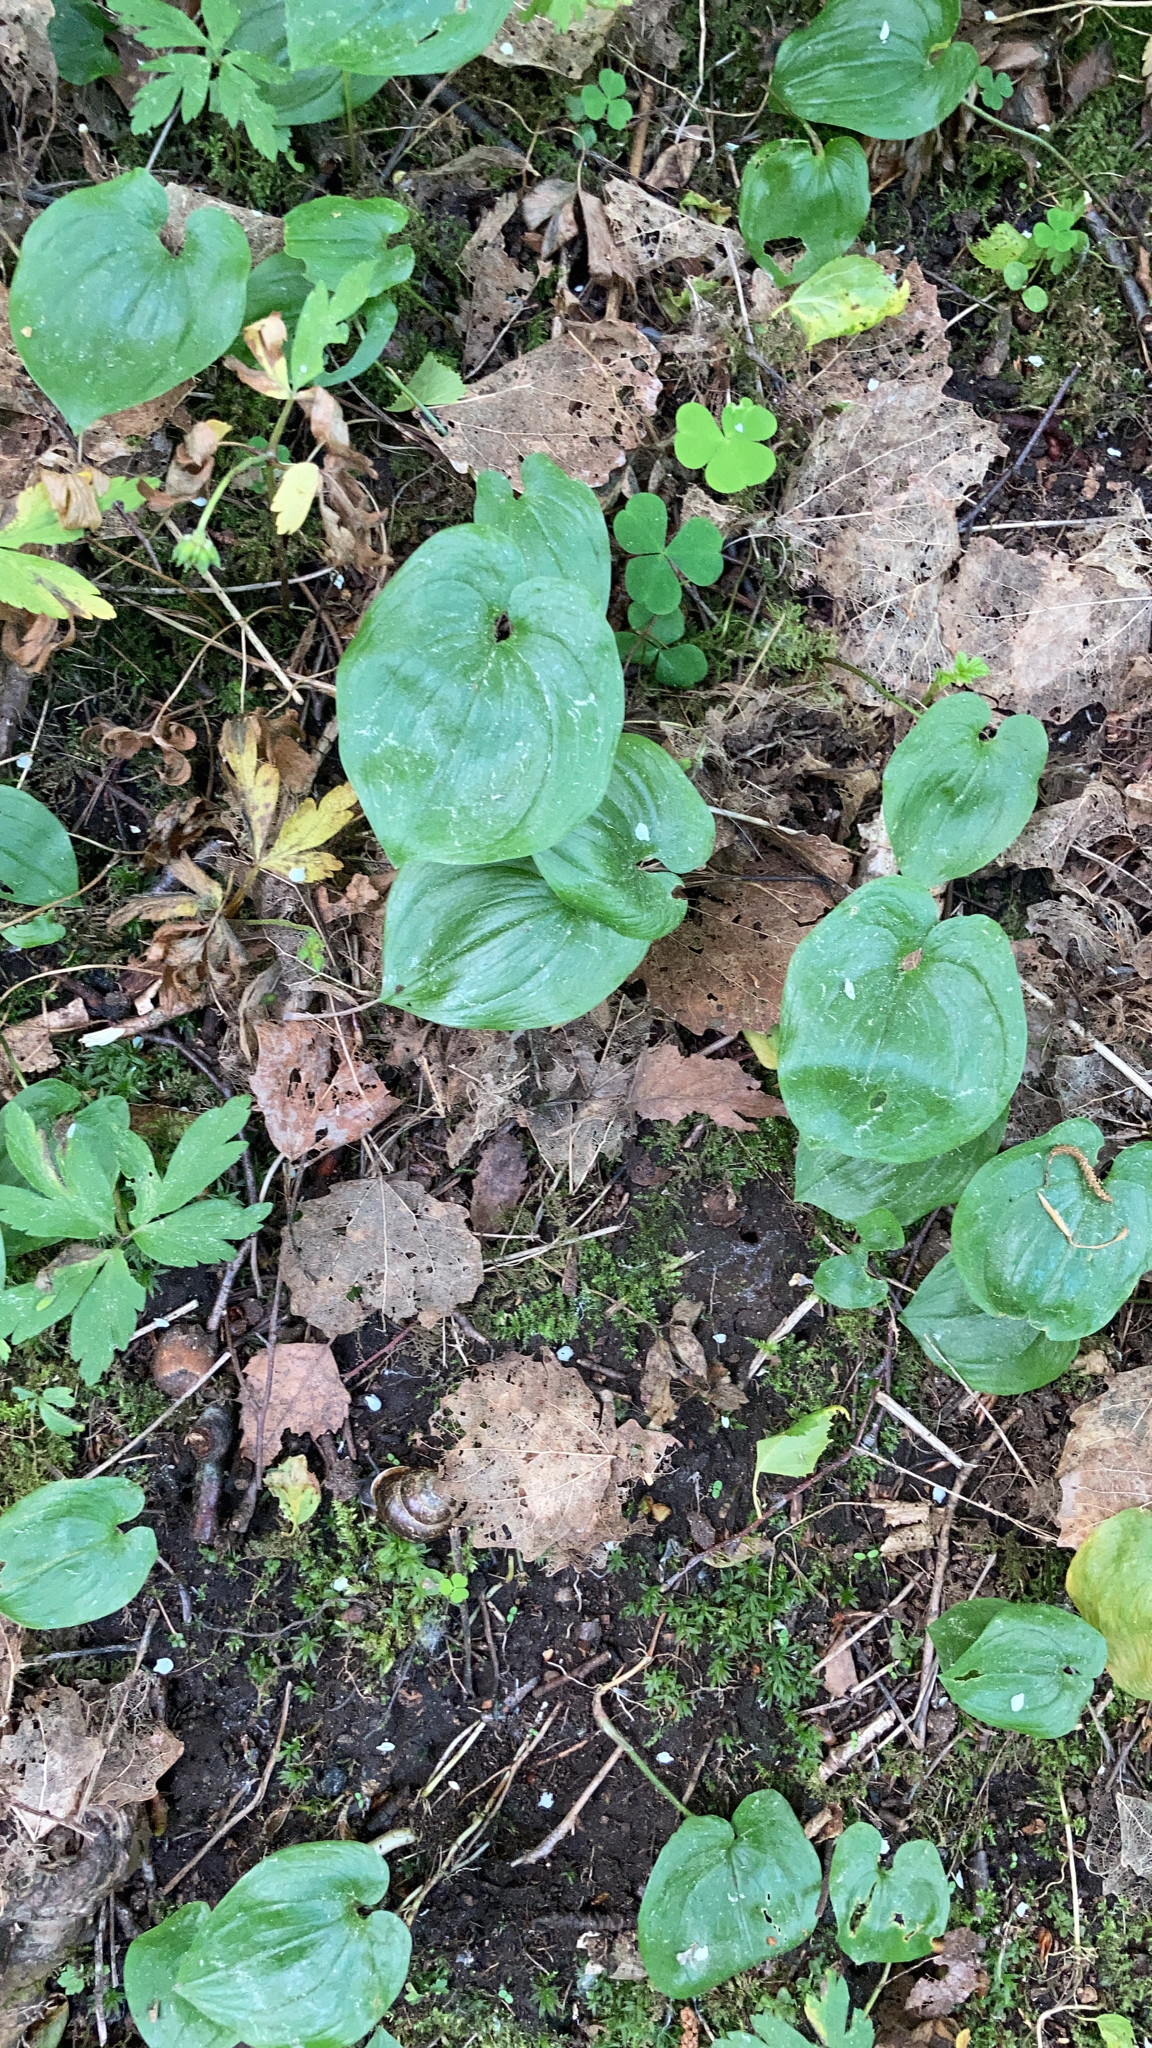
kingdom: Plantae
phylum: Tracheophyta
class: Liliopsida
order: Asparagales
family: Asparagaceae
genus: Maianthemum
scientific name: Maianthemum bifolium
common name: May lily
